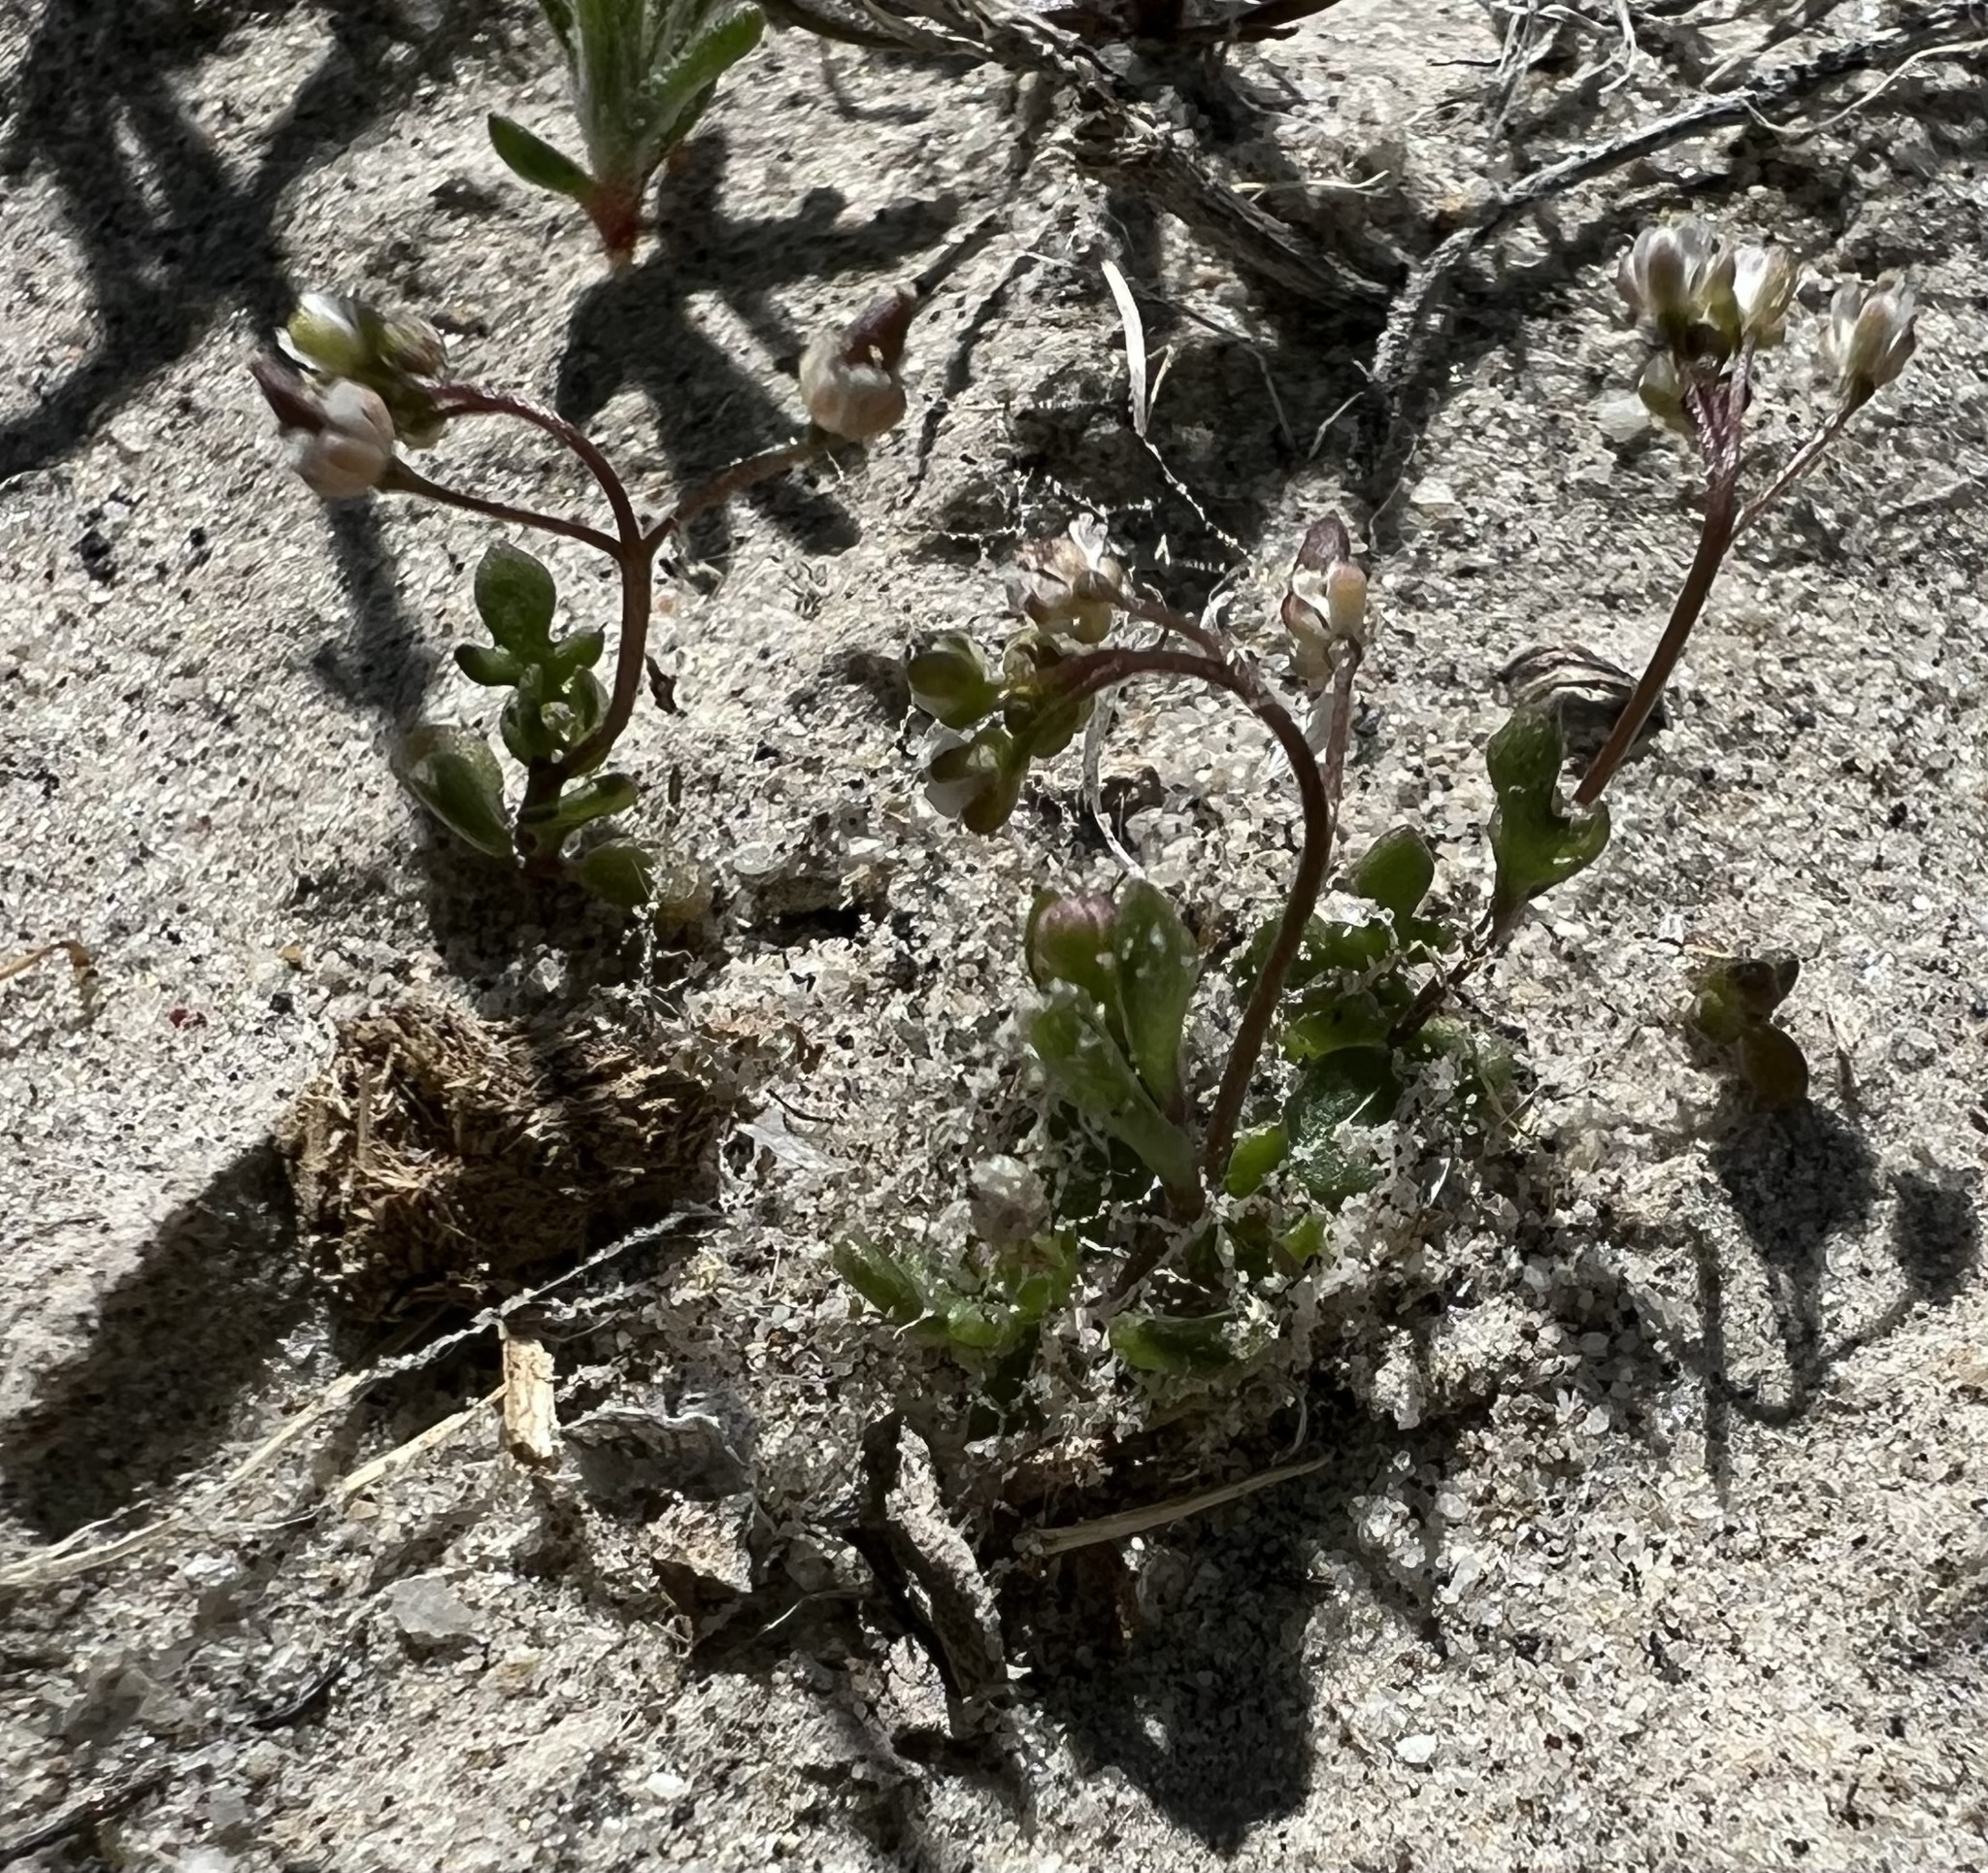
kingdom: Plantae
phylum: Tracheophyta
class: Magnoliopsida
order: Brassicales
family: Brassicaceae
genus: Hornungia
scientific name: Hornungia procumbens
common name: Oval purse
